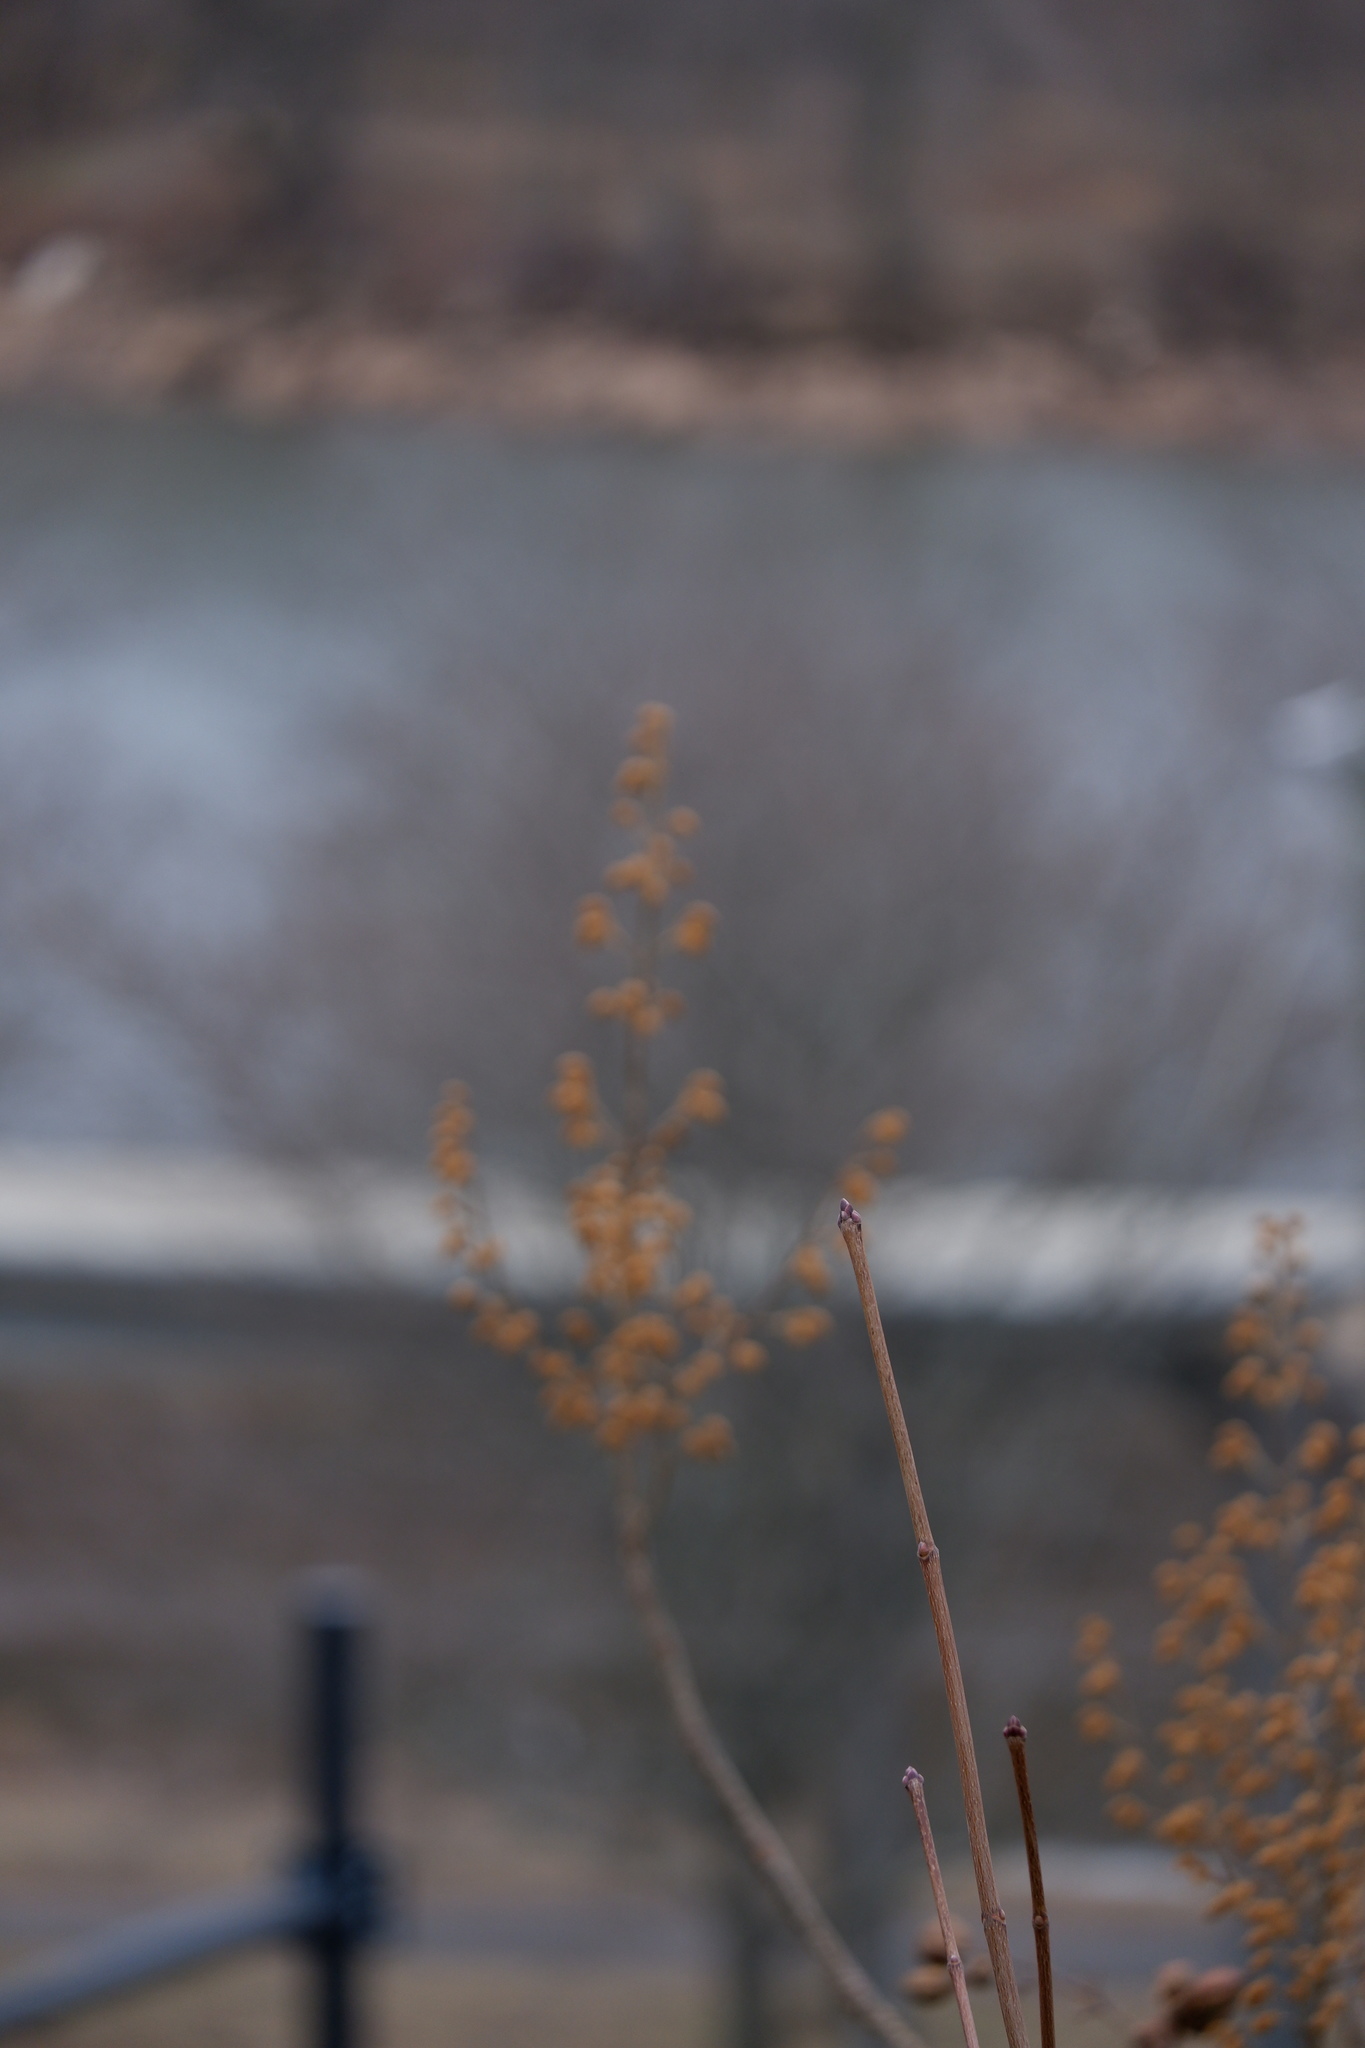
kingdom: Plantae
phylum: Tracheophyta
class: Magnoliopsida
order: Sapindales
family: Sapindaceae
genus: Acer
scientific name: Acer platanoides
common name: Norway maple
